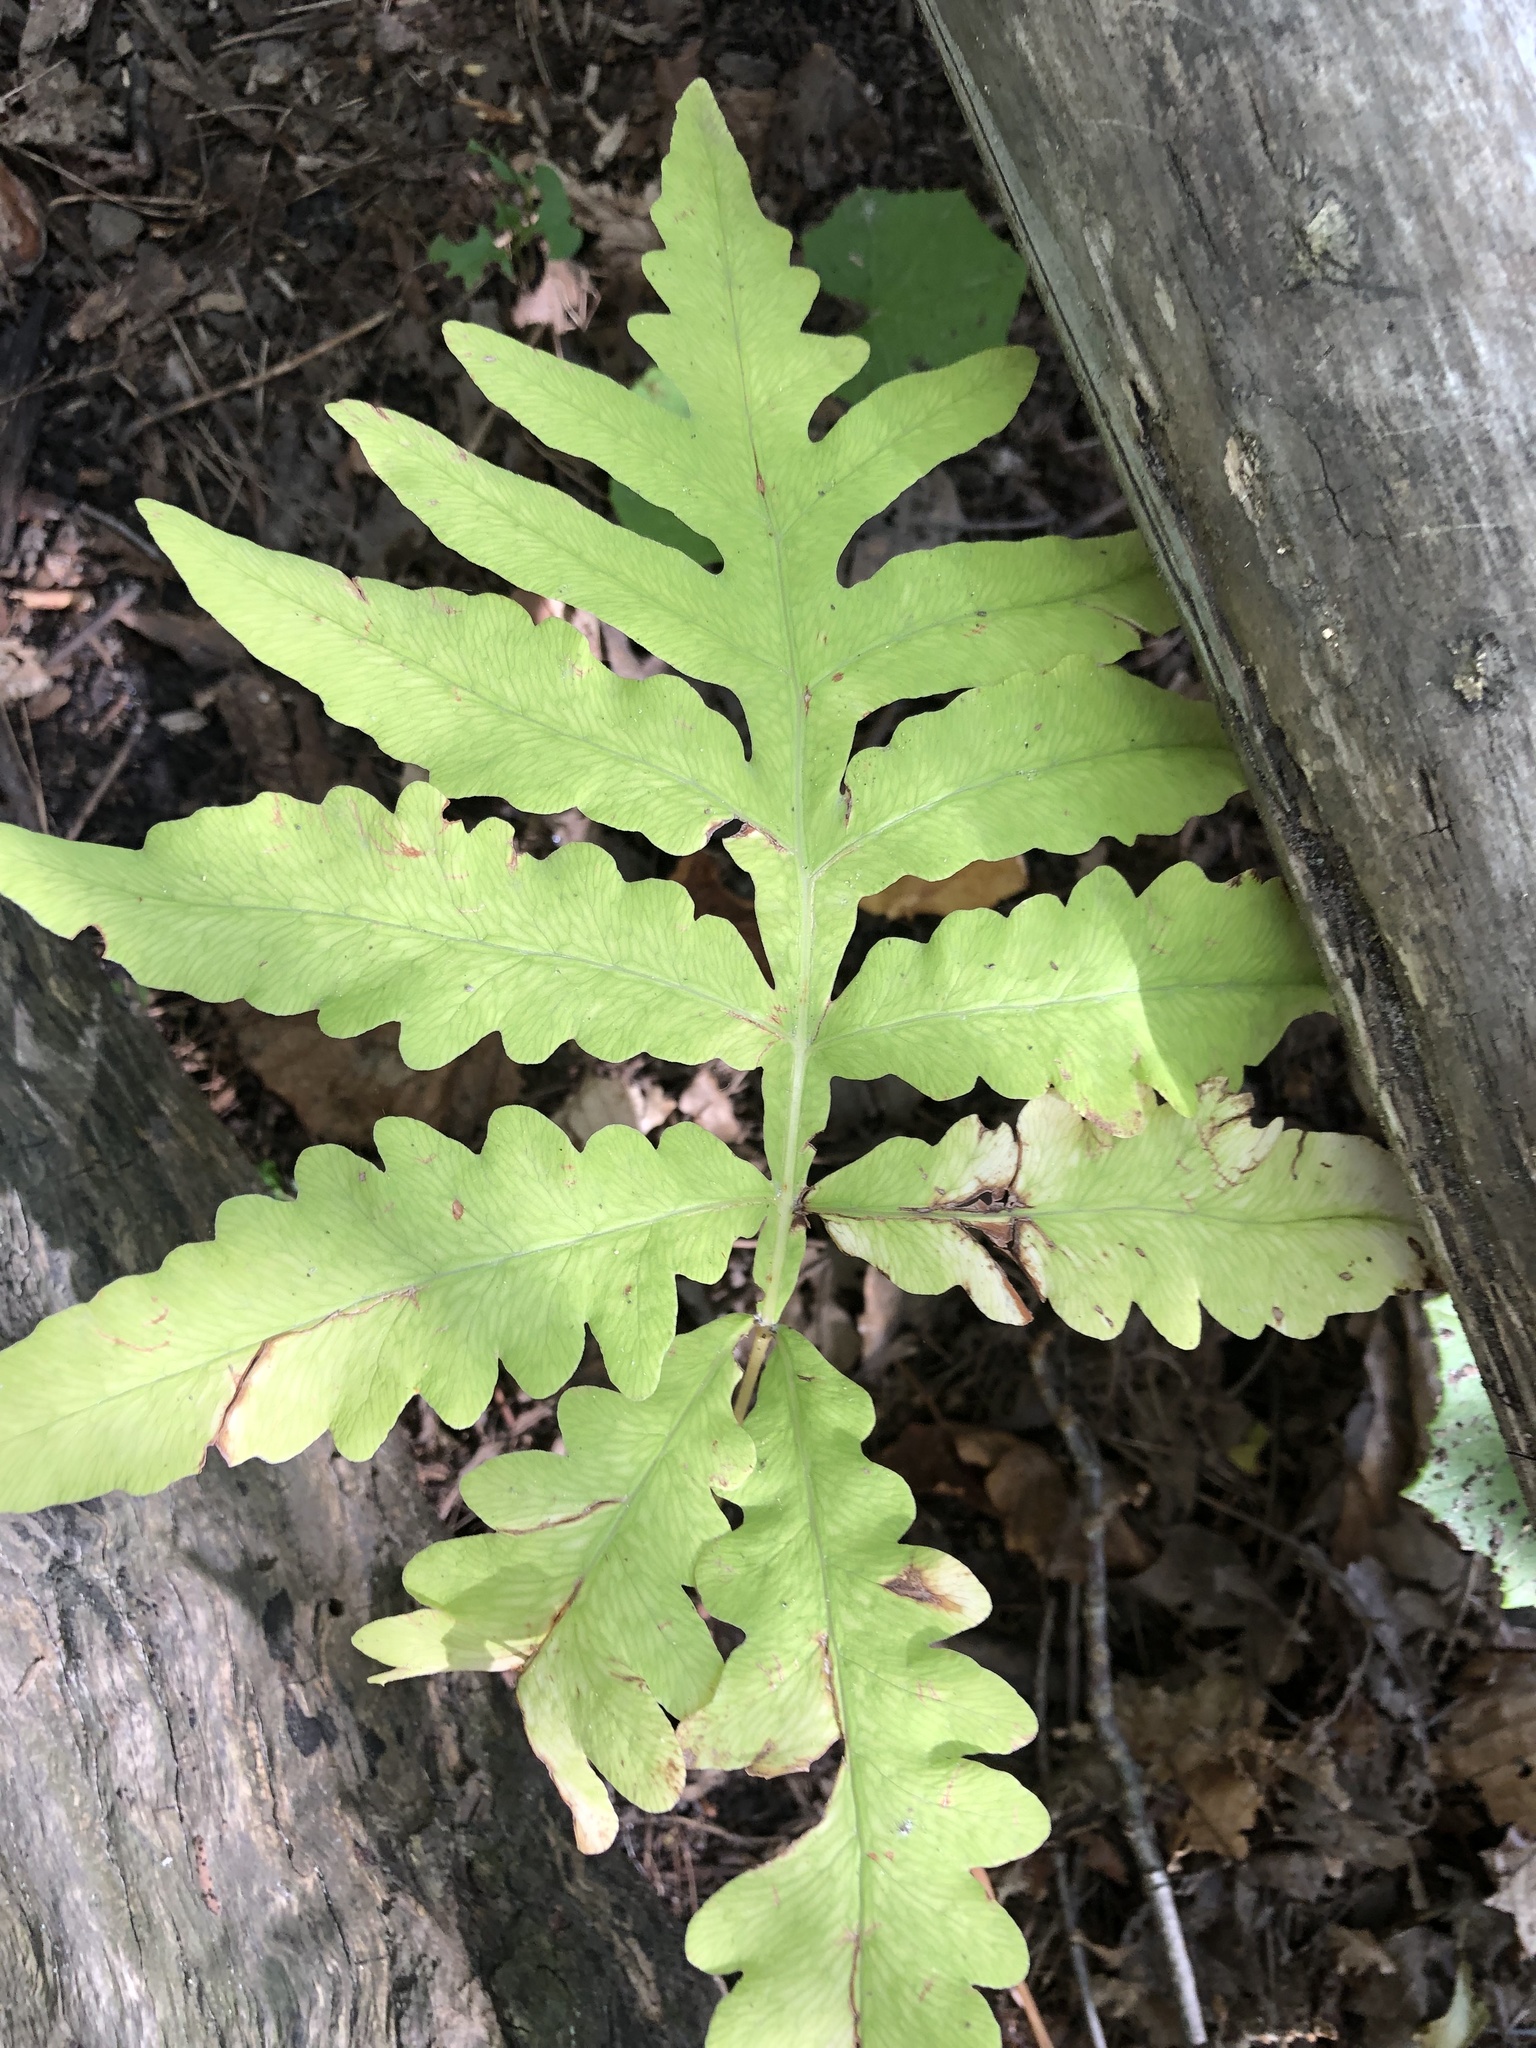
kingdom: Plantae
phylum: Tracheophyta
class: Polypodiopsida
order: Polypodiales
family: Onocleaceae
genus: Onoclea
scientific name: Onoclea sensibilis
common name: Sensitive fern
